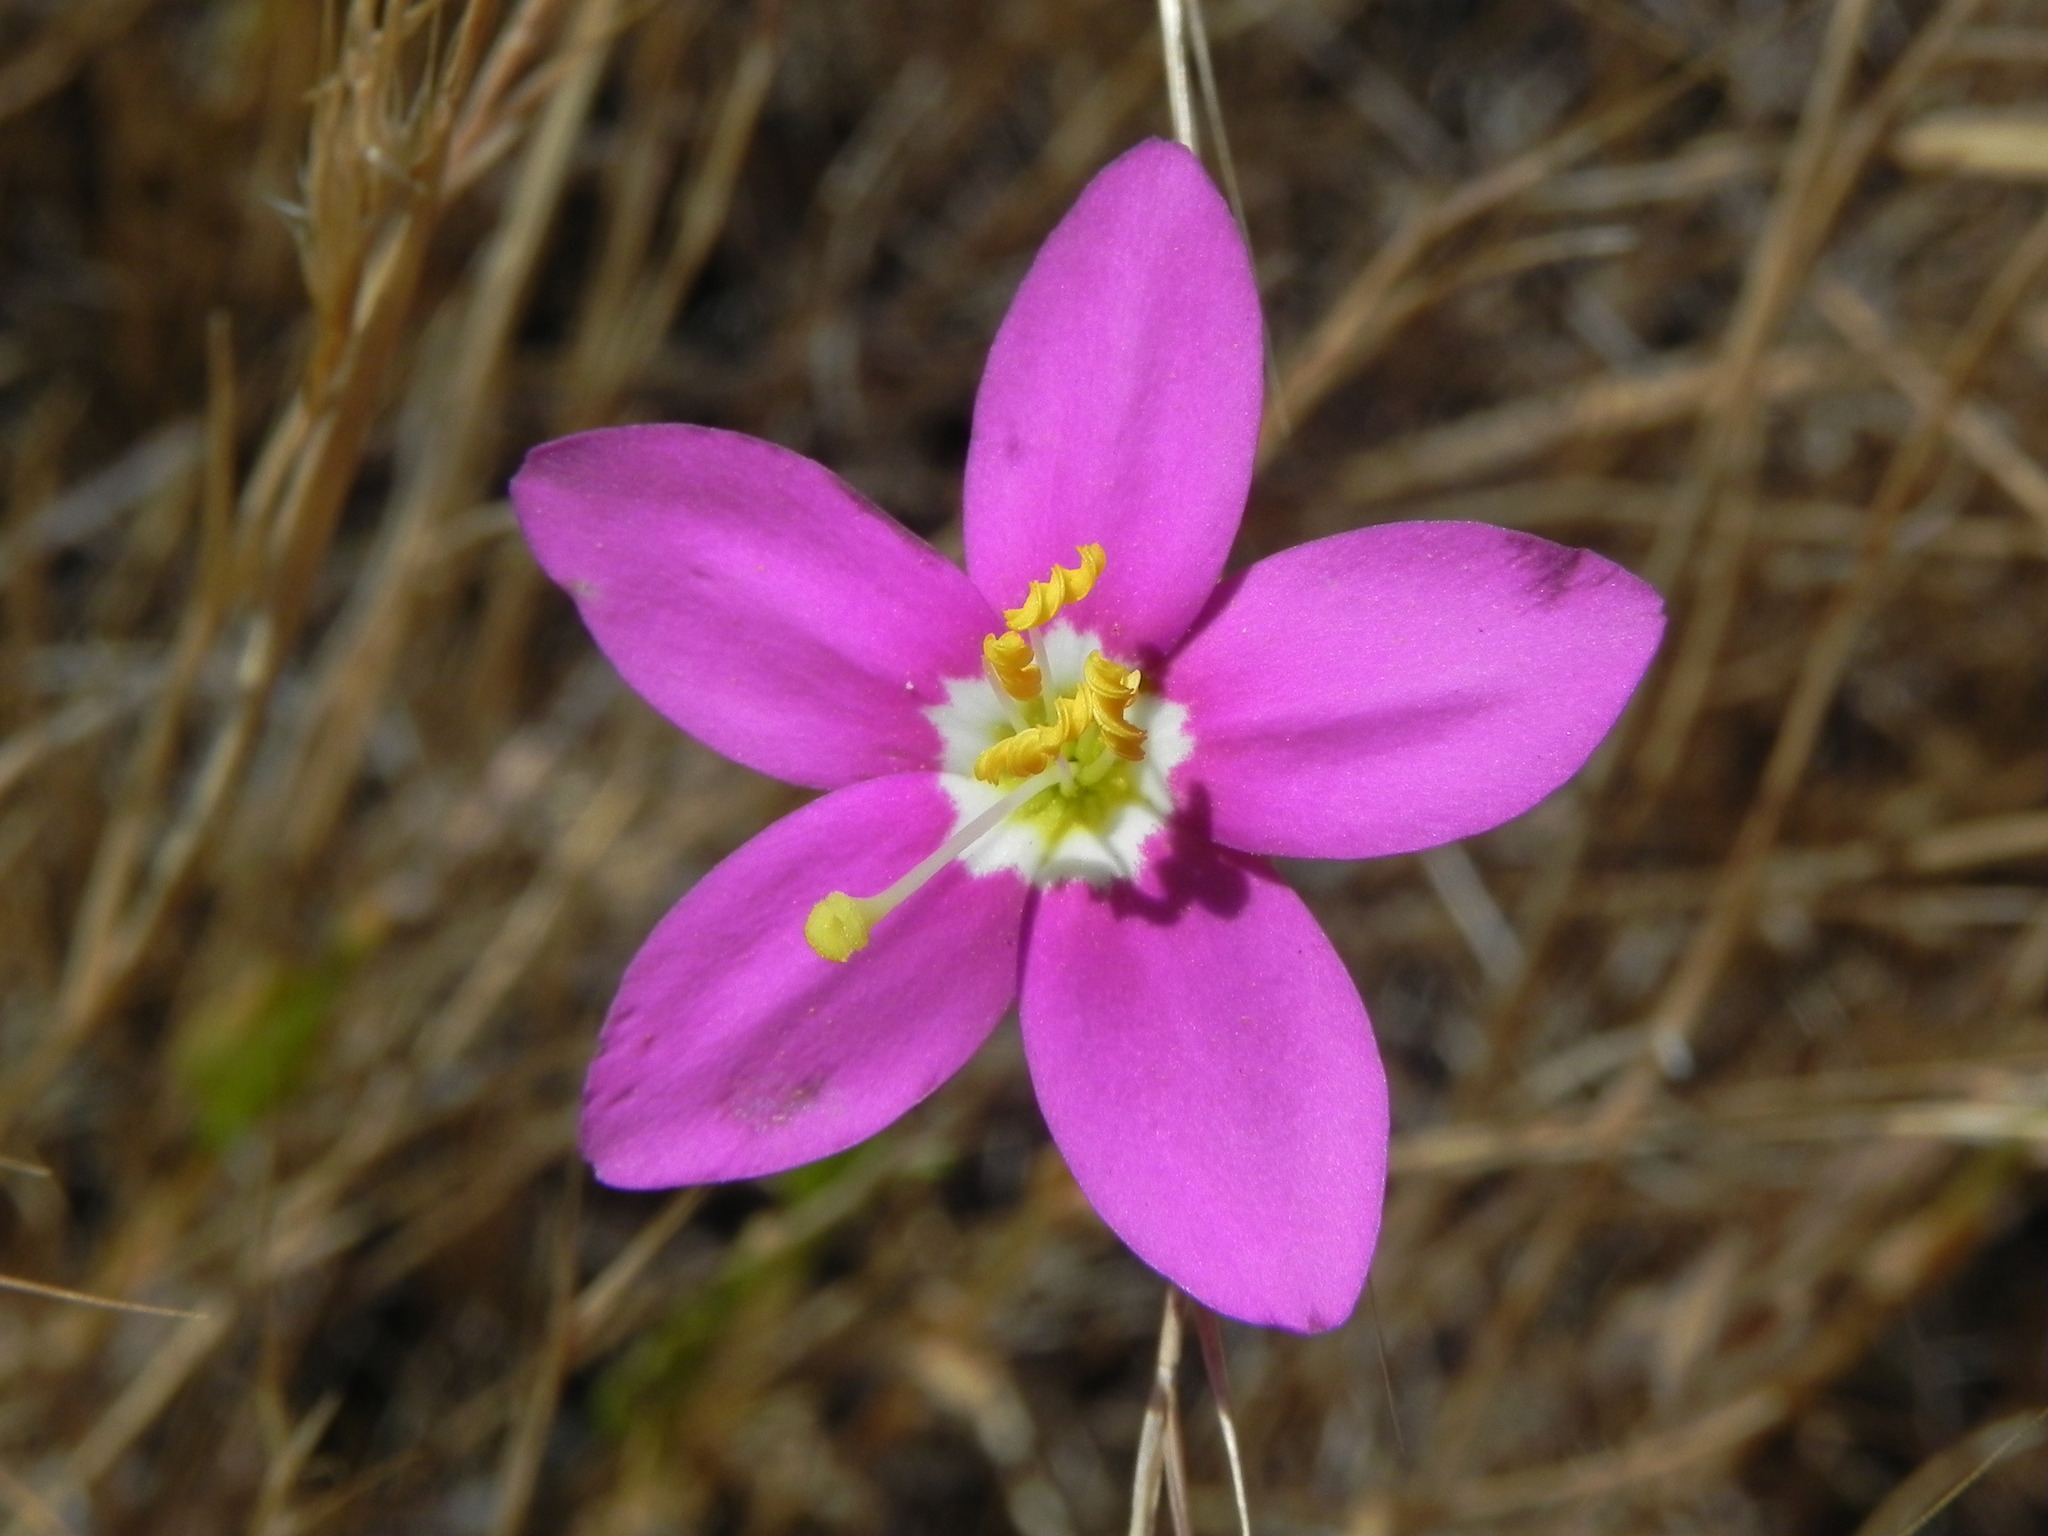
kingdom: Plantae
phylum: Tracheophyta
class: Magnoliopsida
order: Gentianales
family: Gentianaceae
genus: Zeltnera
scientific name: Zeltnera venusta
